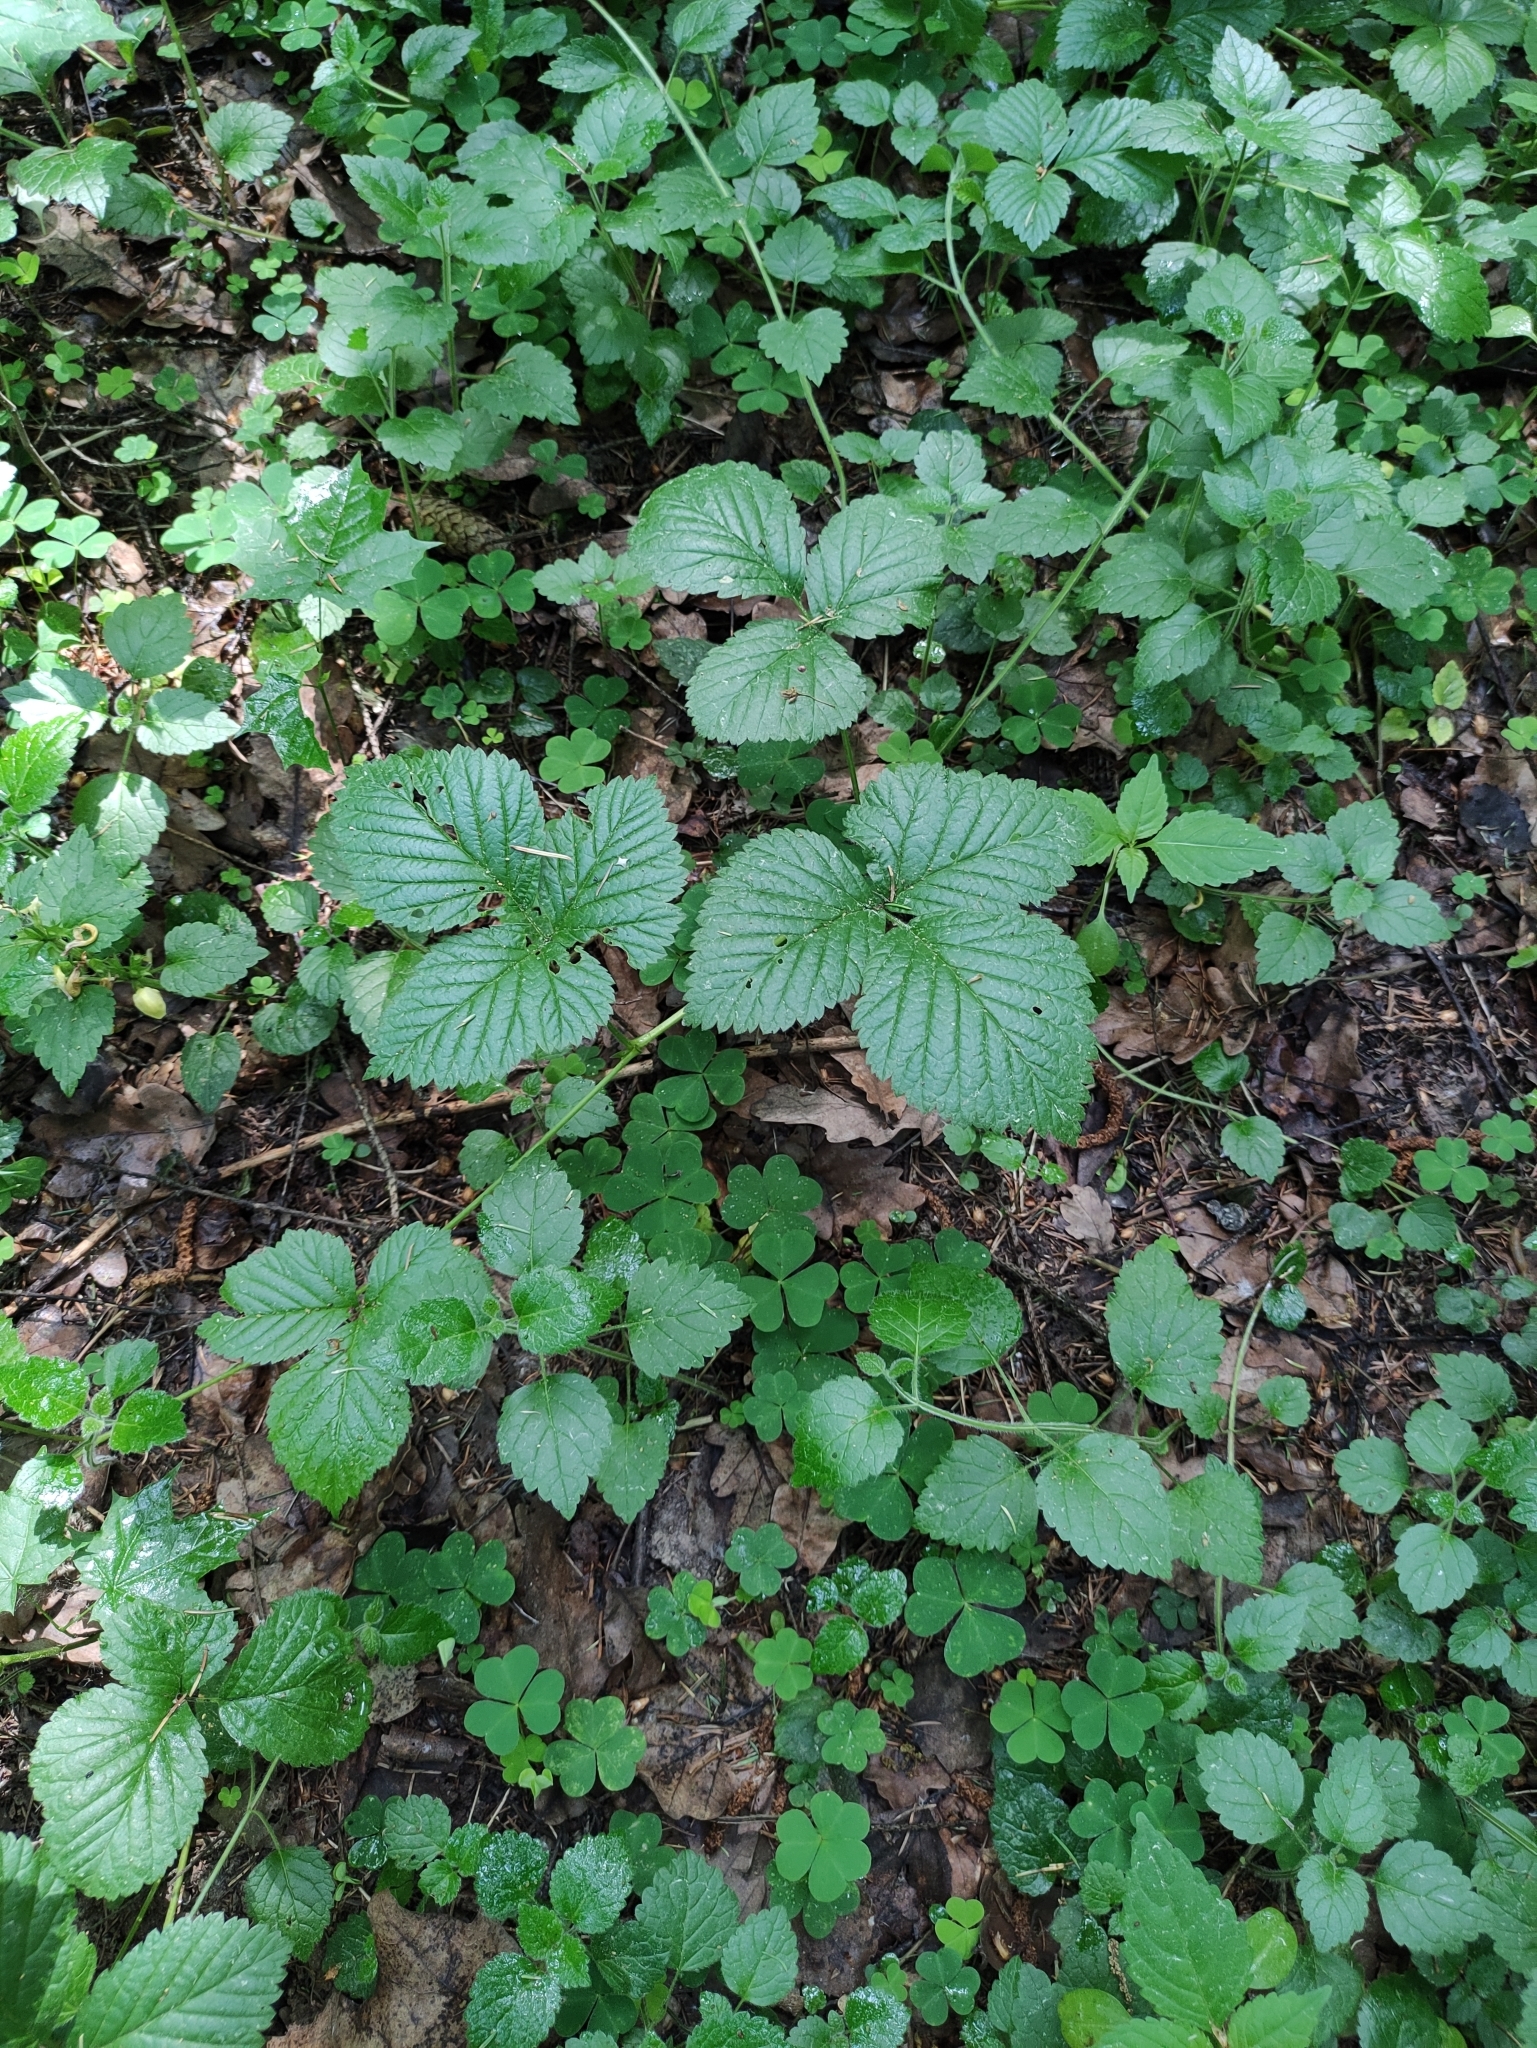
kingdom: Plantae
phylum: Tracheophyta
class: Magnoliopsida
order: Rosales
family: Rosaceae
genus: Rubus
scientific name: Rubus saxatilis
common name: Stone bramble
